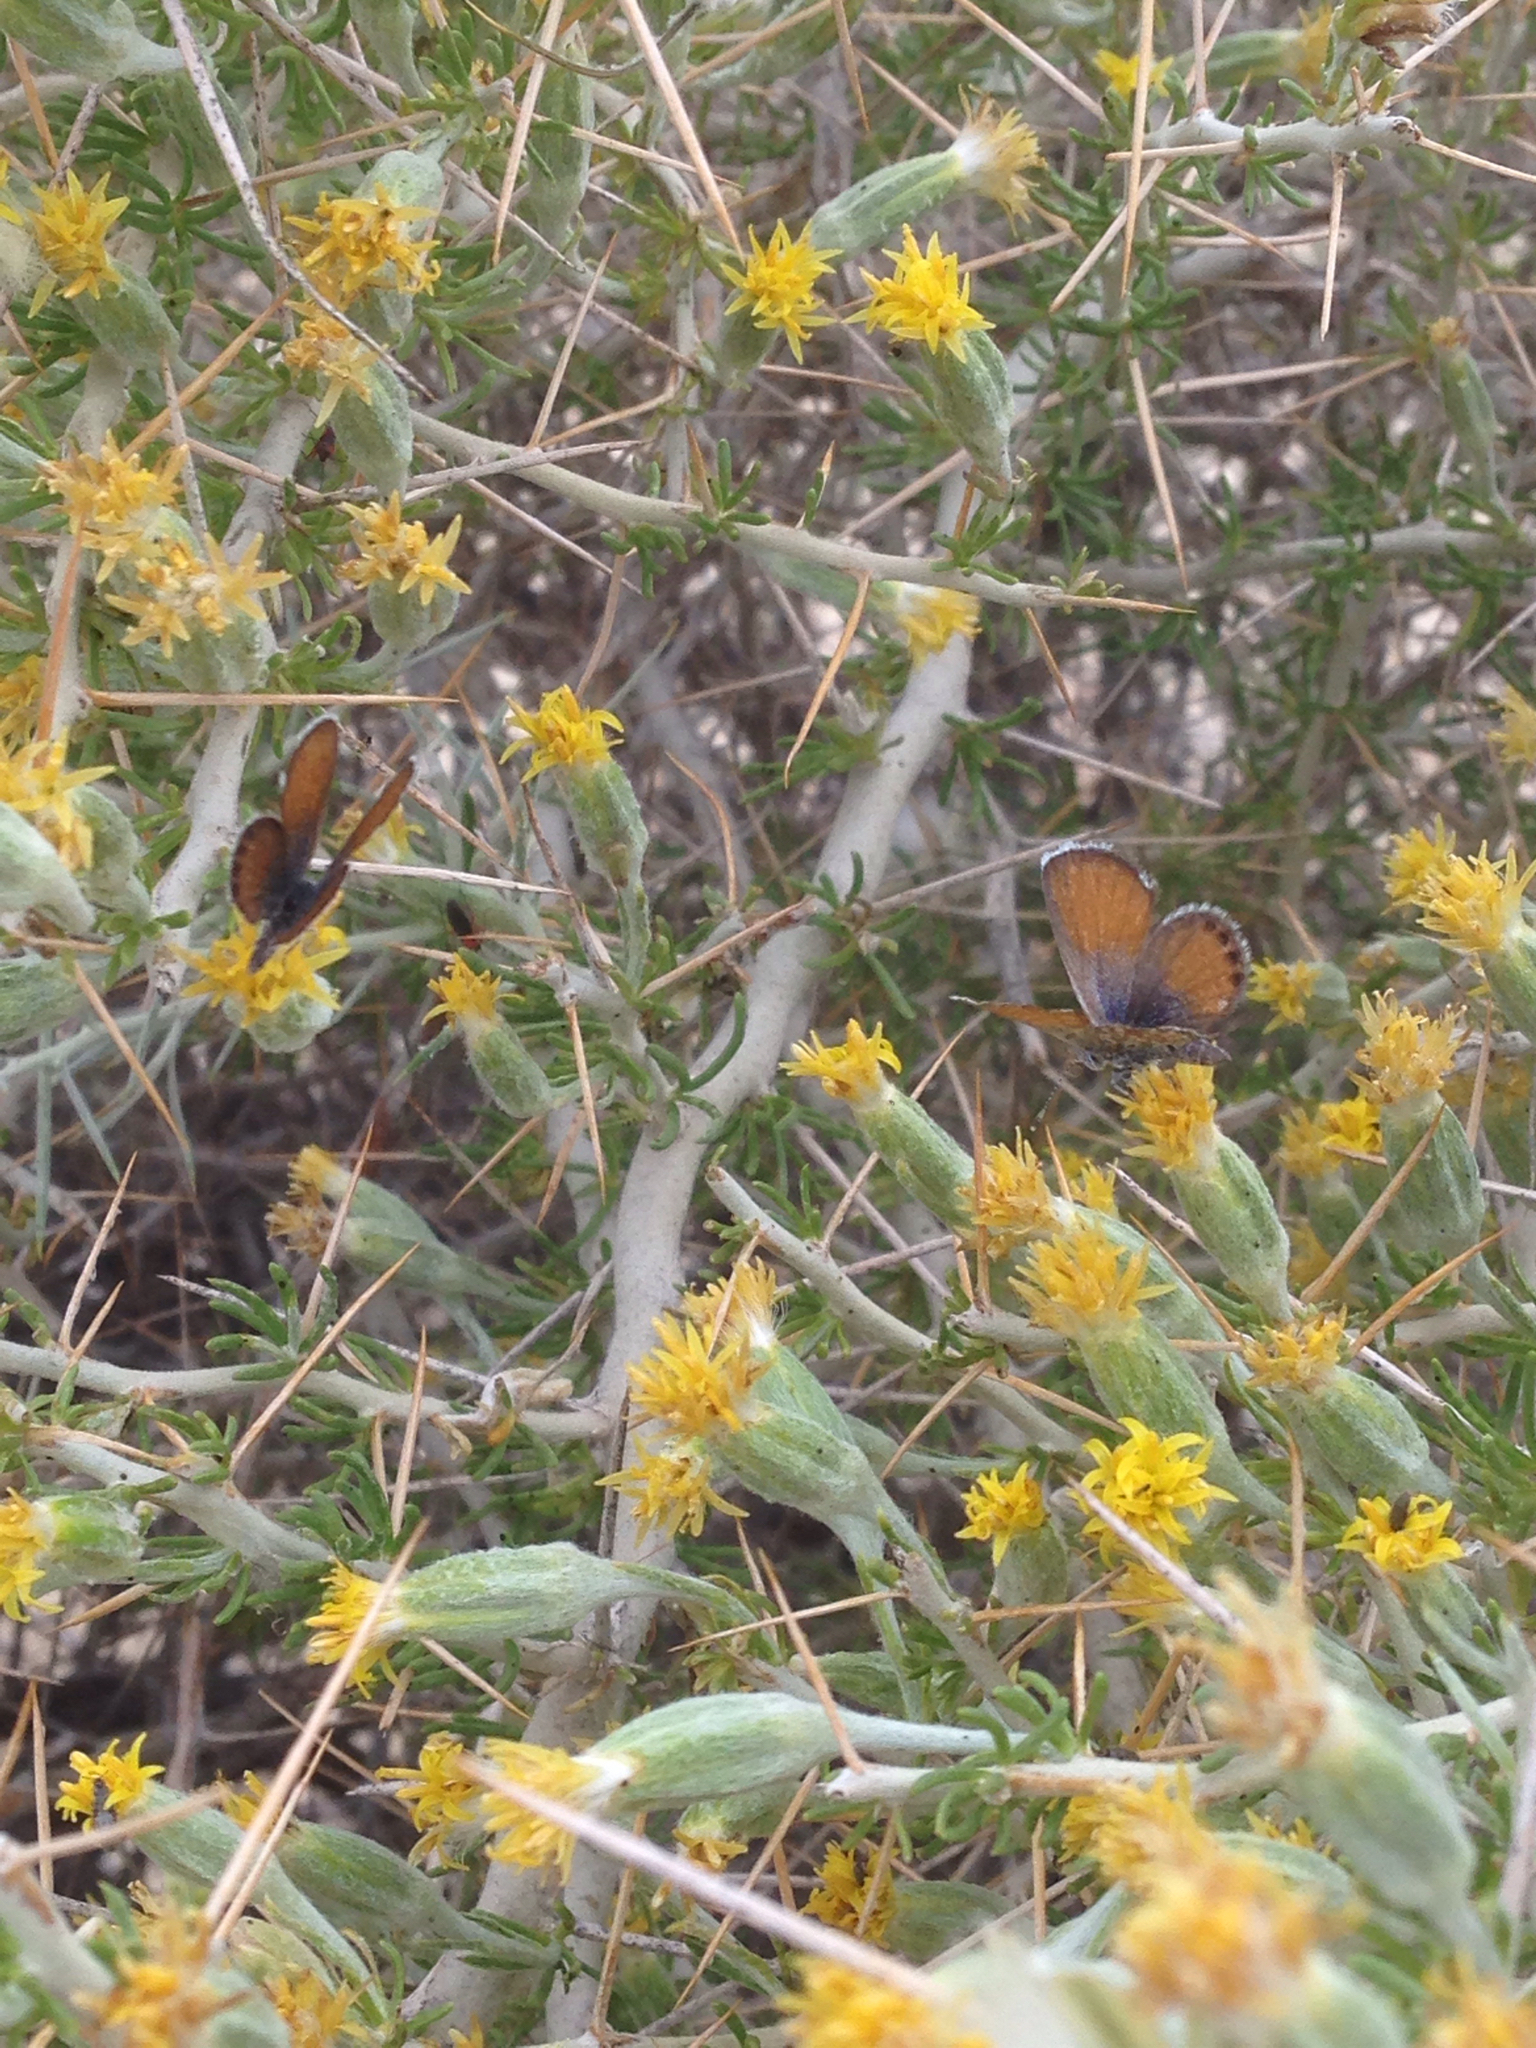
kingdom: Animalia
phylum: Arthropoda
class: Insecta
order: Lepidoptera
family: Lycaenidae
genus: Brephidium
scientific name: Brephidium exilis
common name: Pygmy blue
